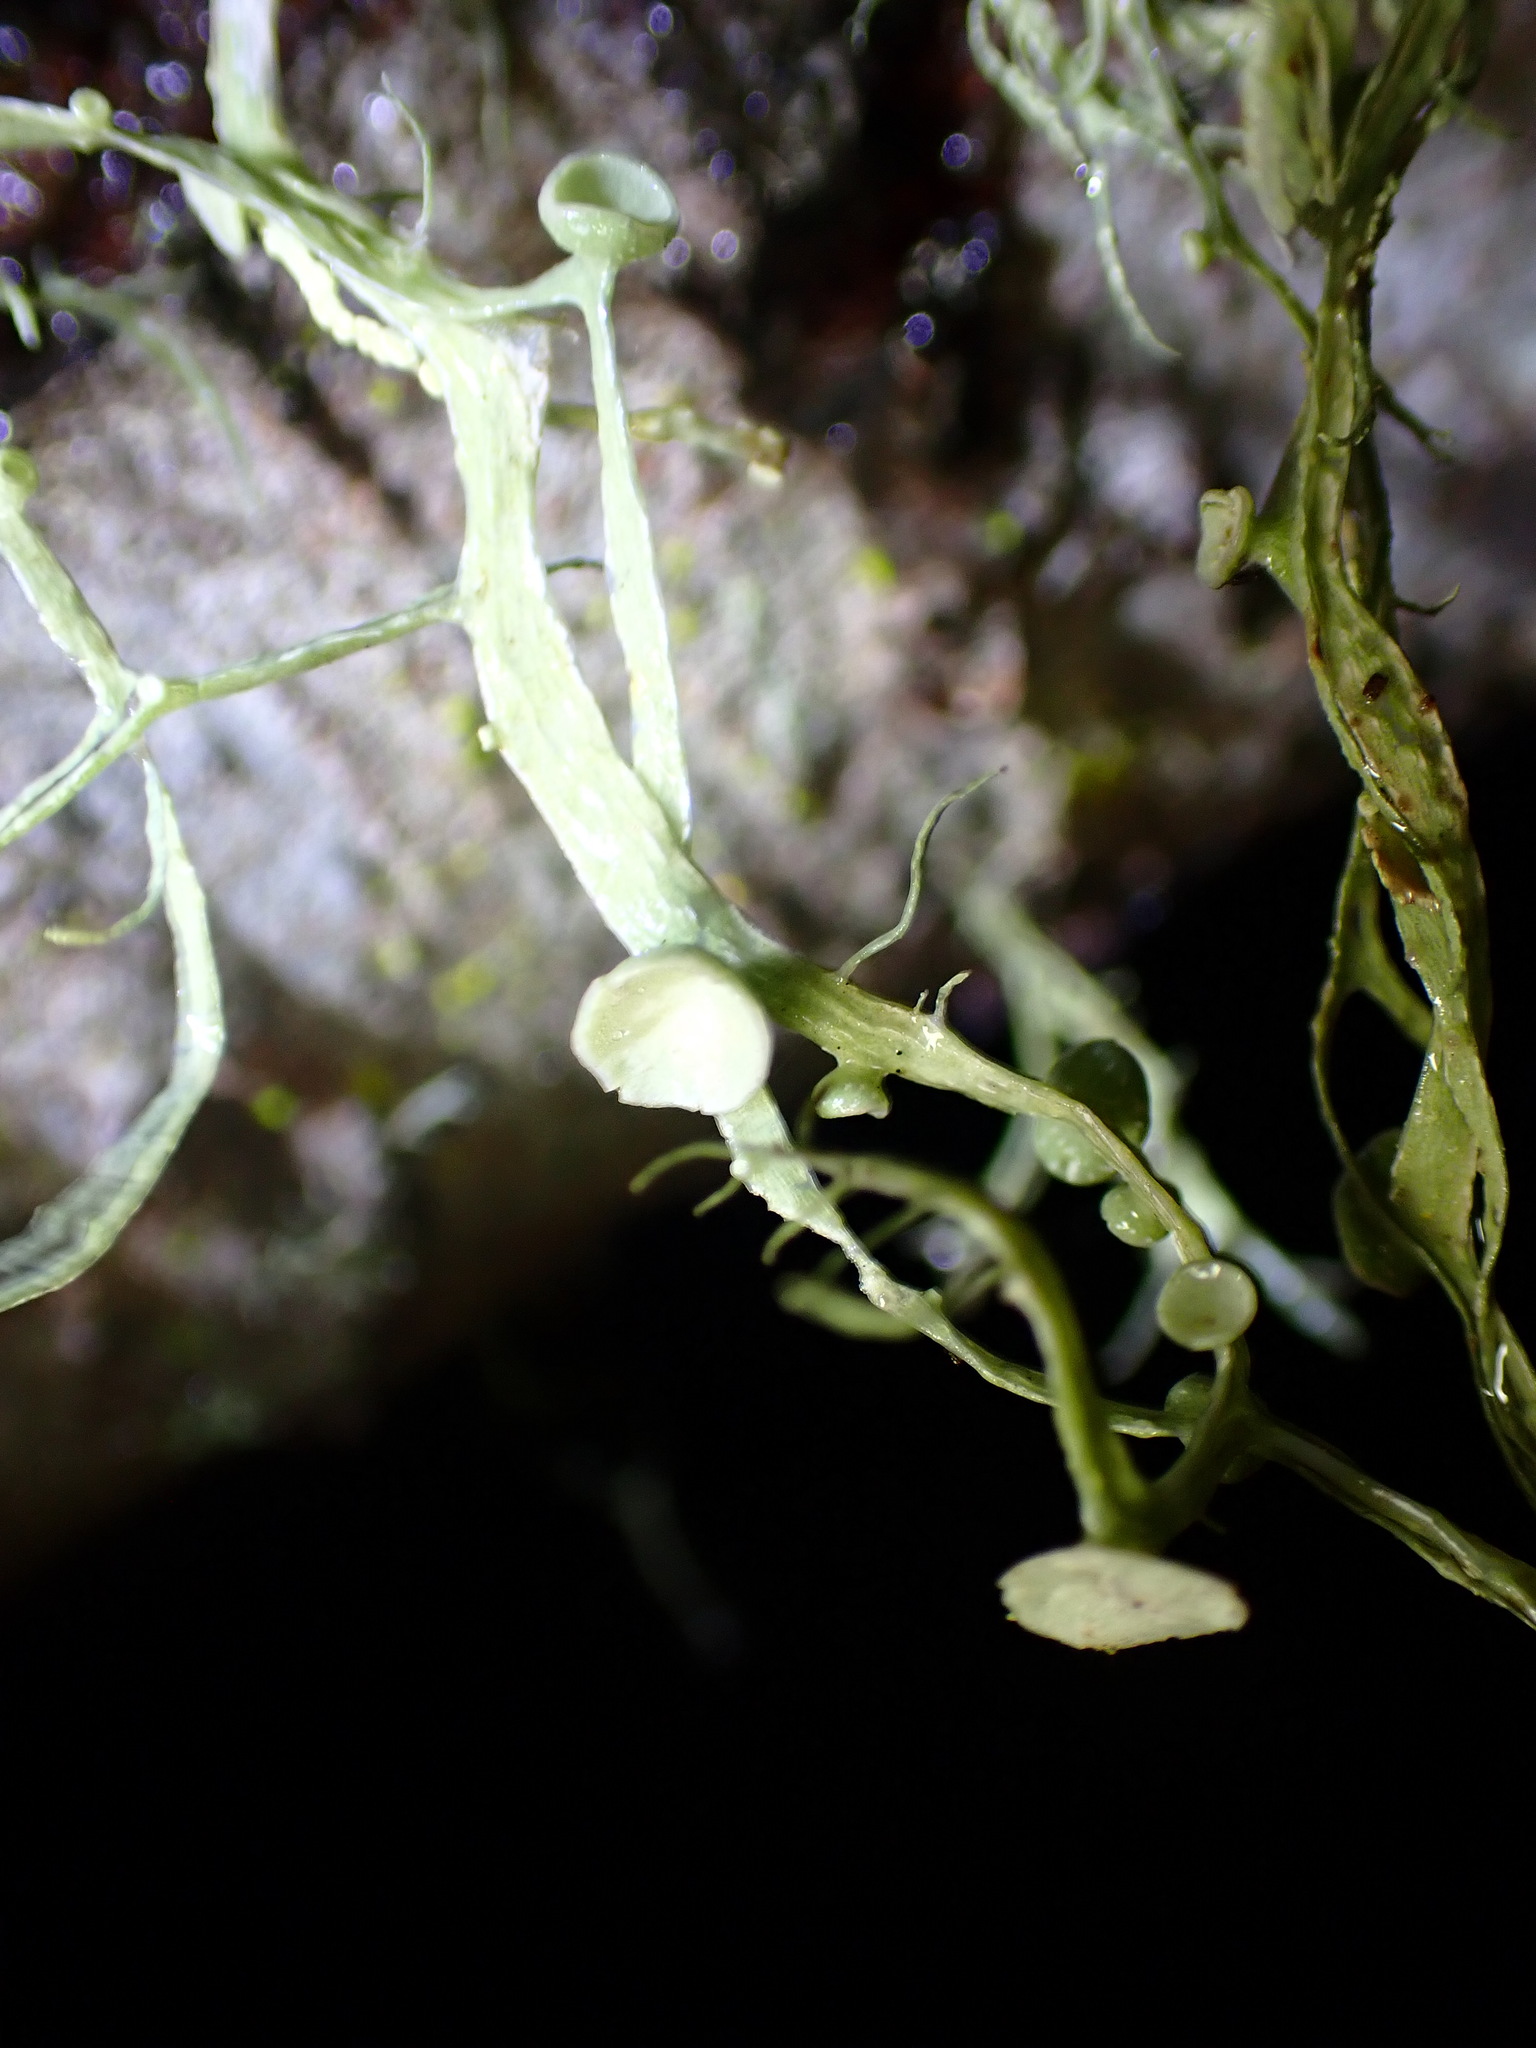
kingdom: Fungi
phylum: Ascomycota
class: Lecanoromycetes
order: Lecanorales
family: Ramalinaceae
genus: Ramalina
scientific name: Ramalina leptocarpha
